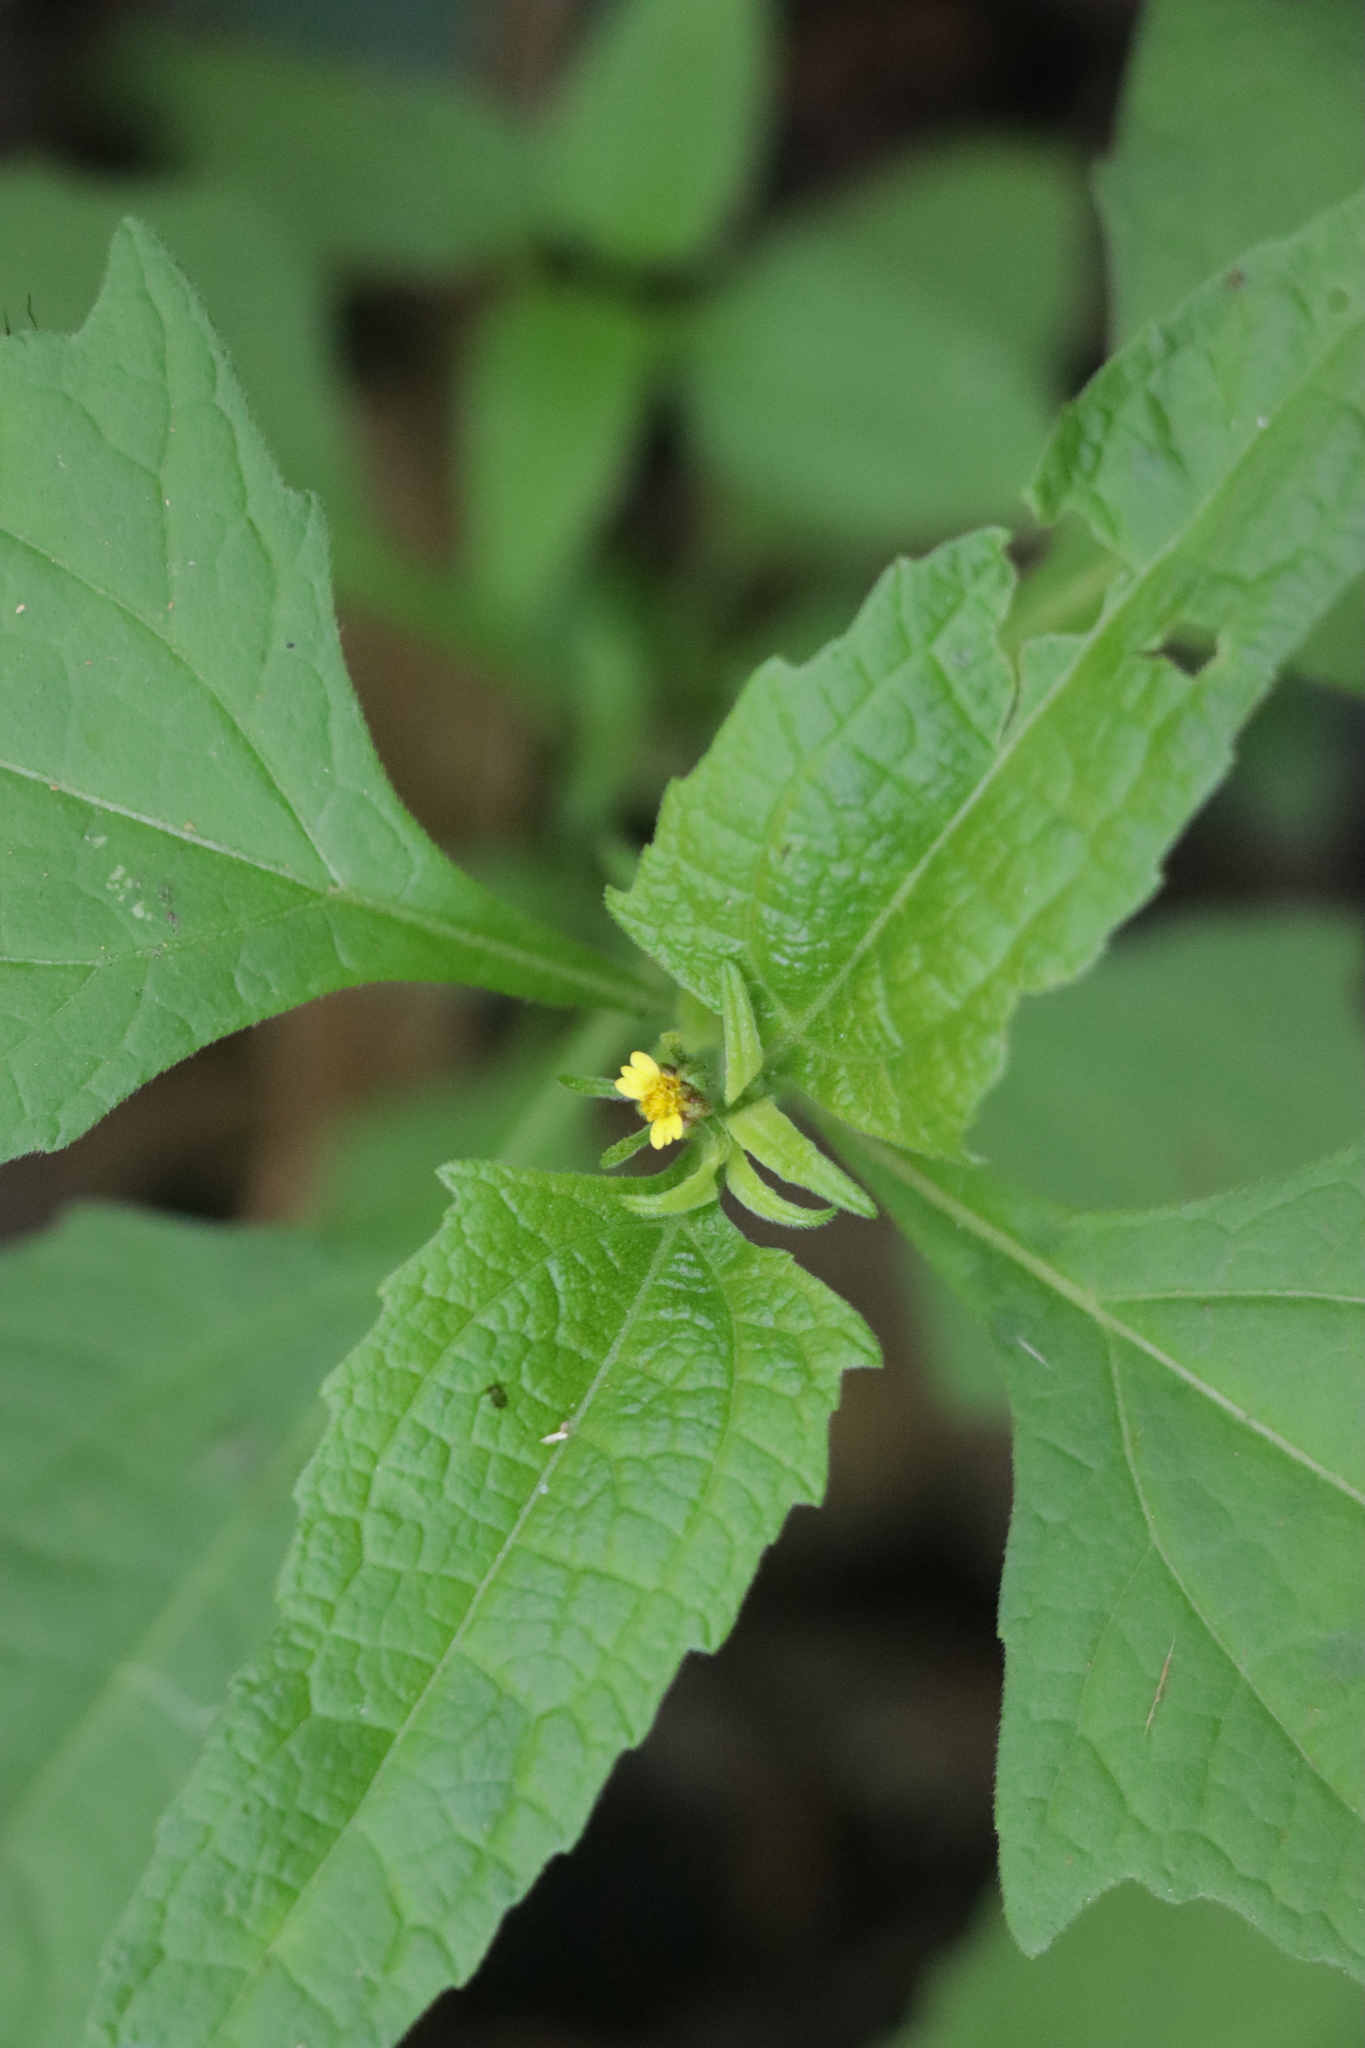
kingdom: Plantae
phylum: Tracheophyta
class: Magnoliopsida
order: Asterales
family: Asteraceae
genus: Sigesbeckia
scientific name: Sigesbeckia orientalis
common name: Eastern st paul's-wort
